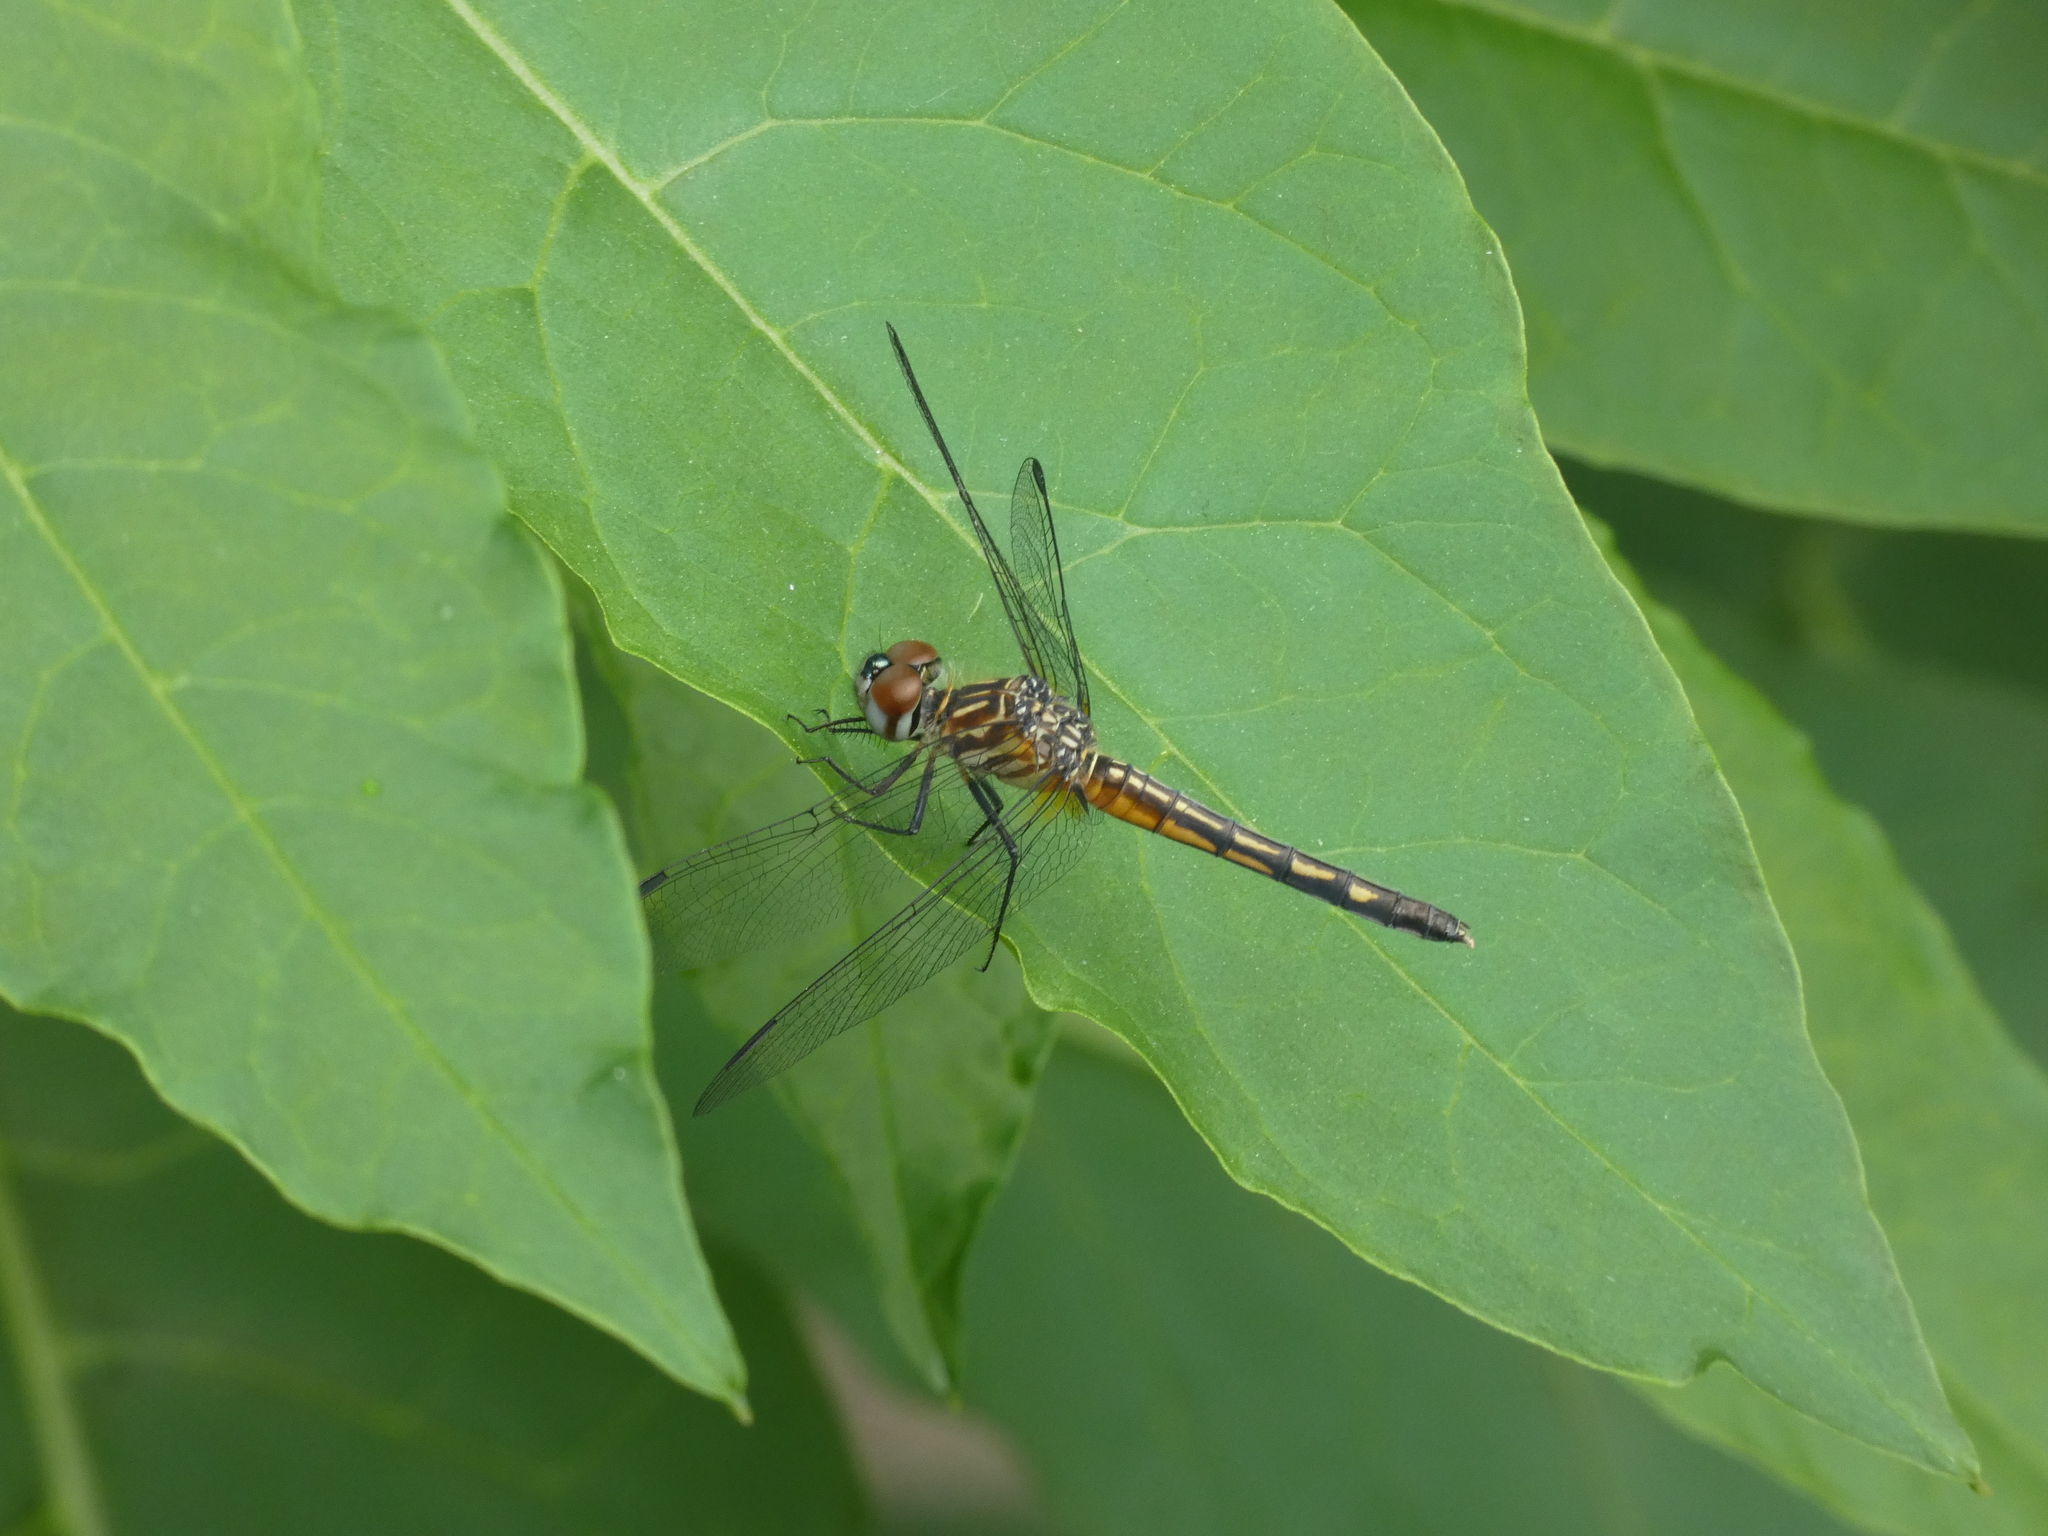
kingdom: Animalia
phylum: Arthropoda
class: Insecta
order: Odonata
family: Libellulidae
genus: Pachydiplax
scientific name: Pachydiplax longipennis
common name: Blue dasher
